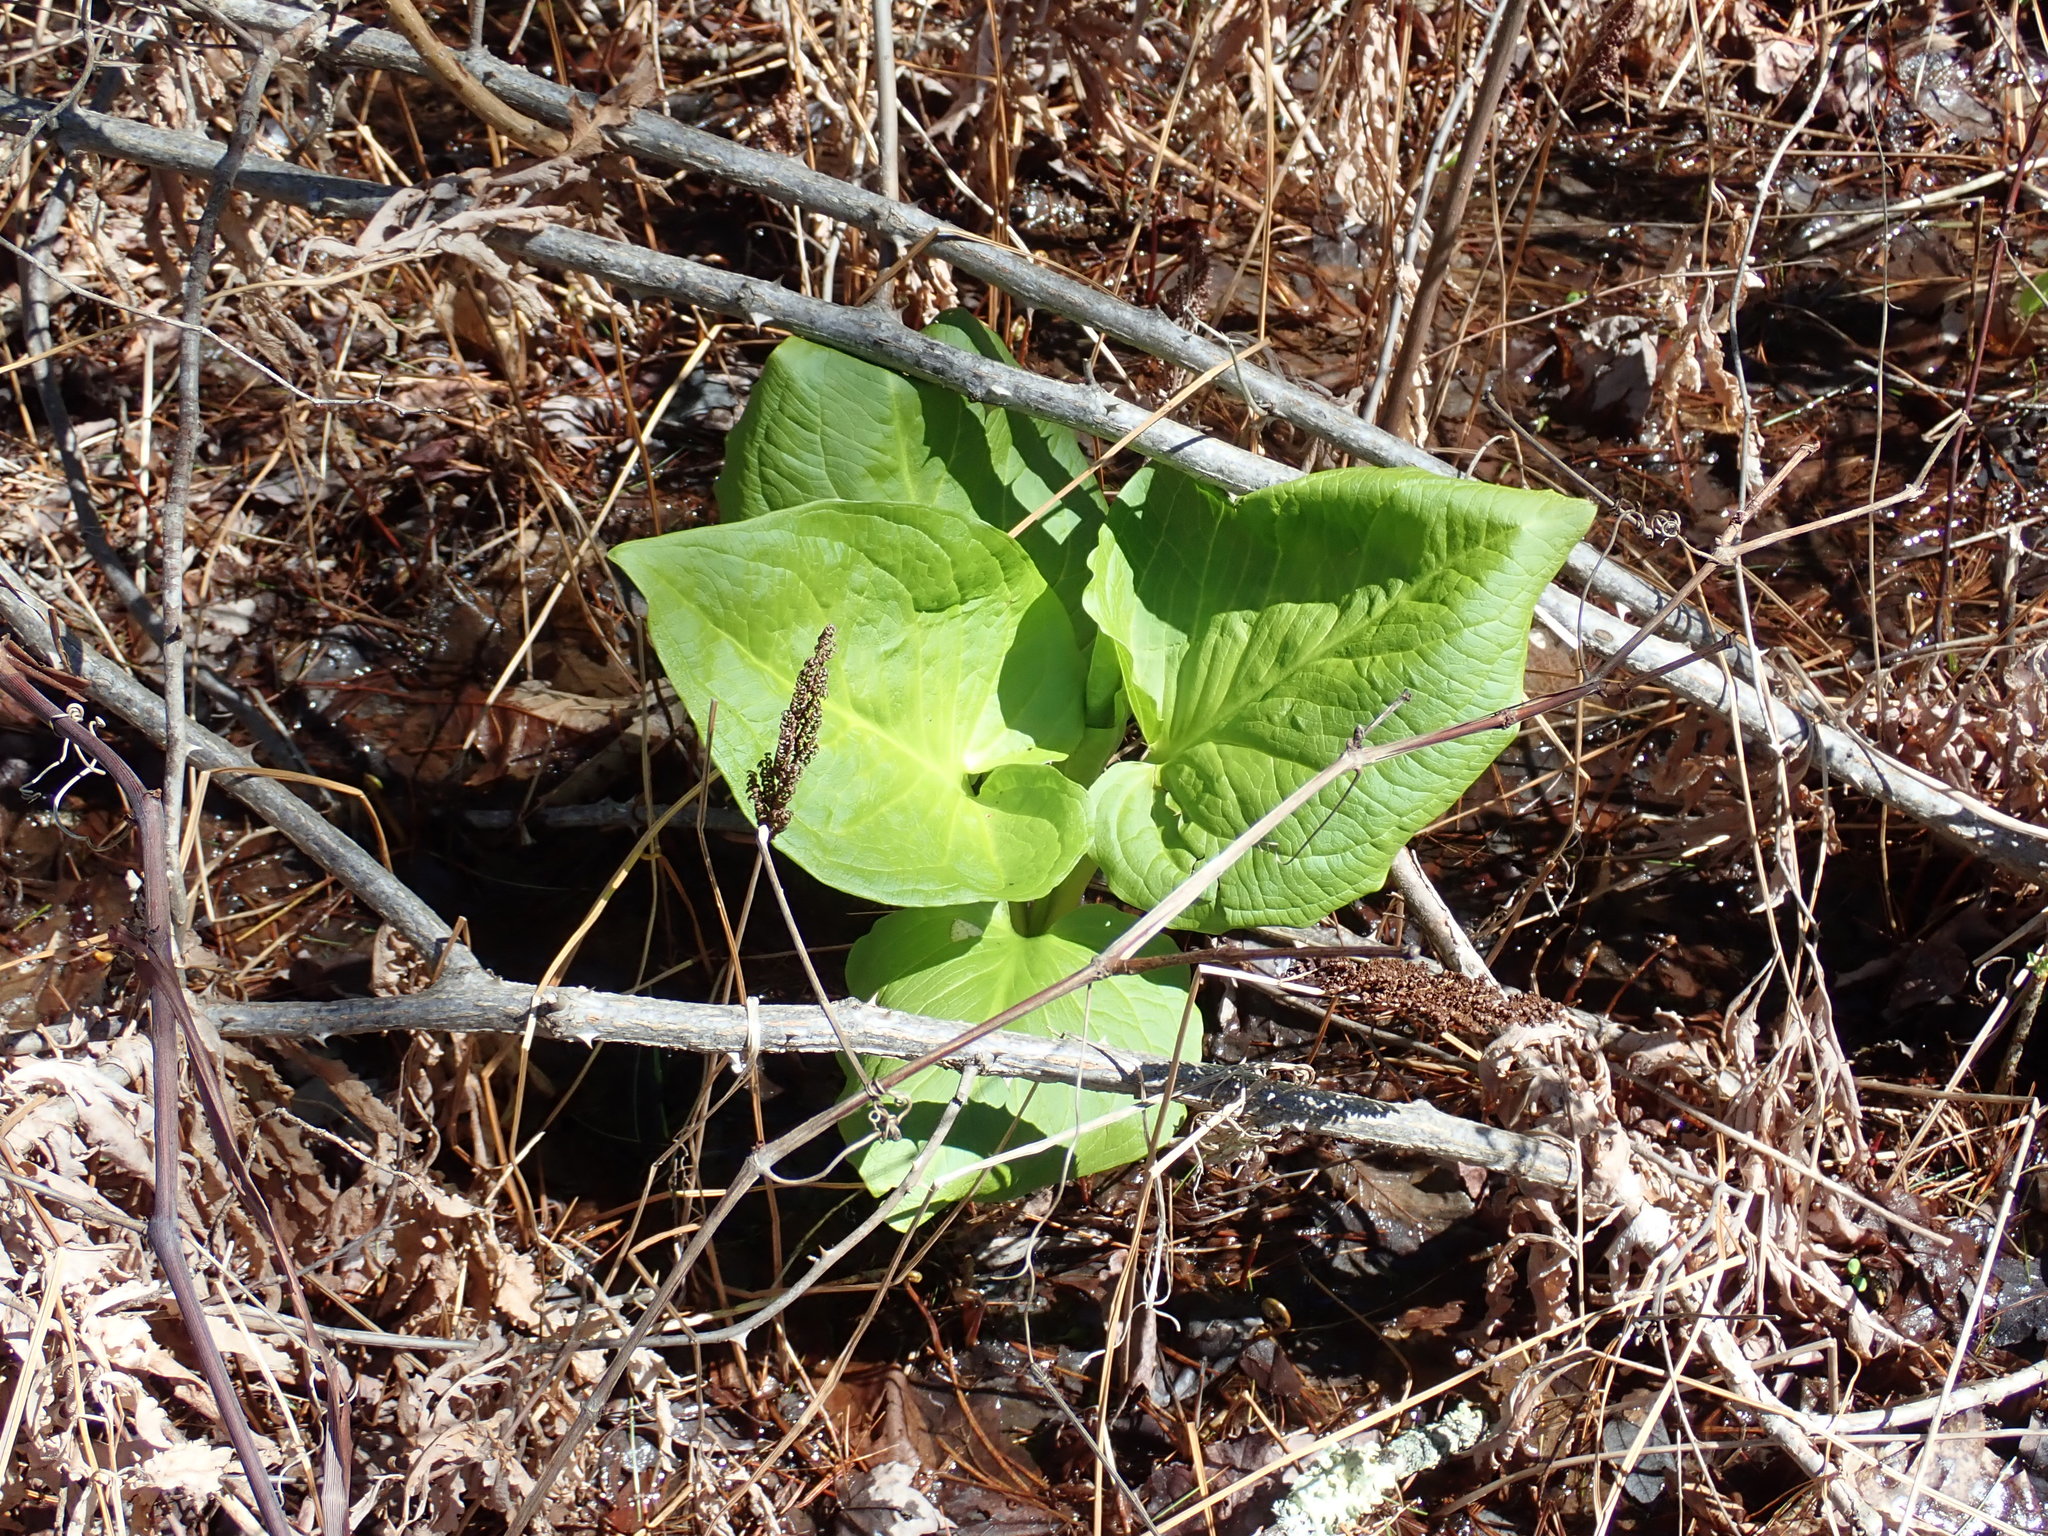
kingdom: Plantae
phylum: Tracheophyta
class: Liliopsida
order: Alismatales
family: Araceae
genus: Symplocarpus
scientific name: Symplocarpus foetidus
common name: Eastern skunk cabbage
